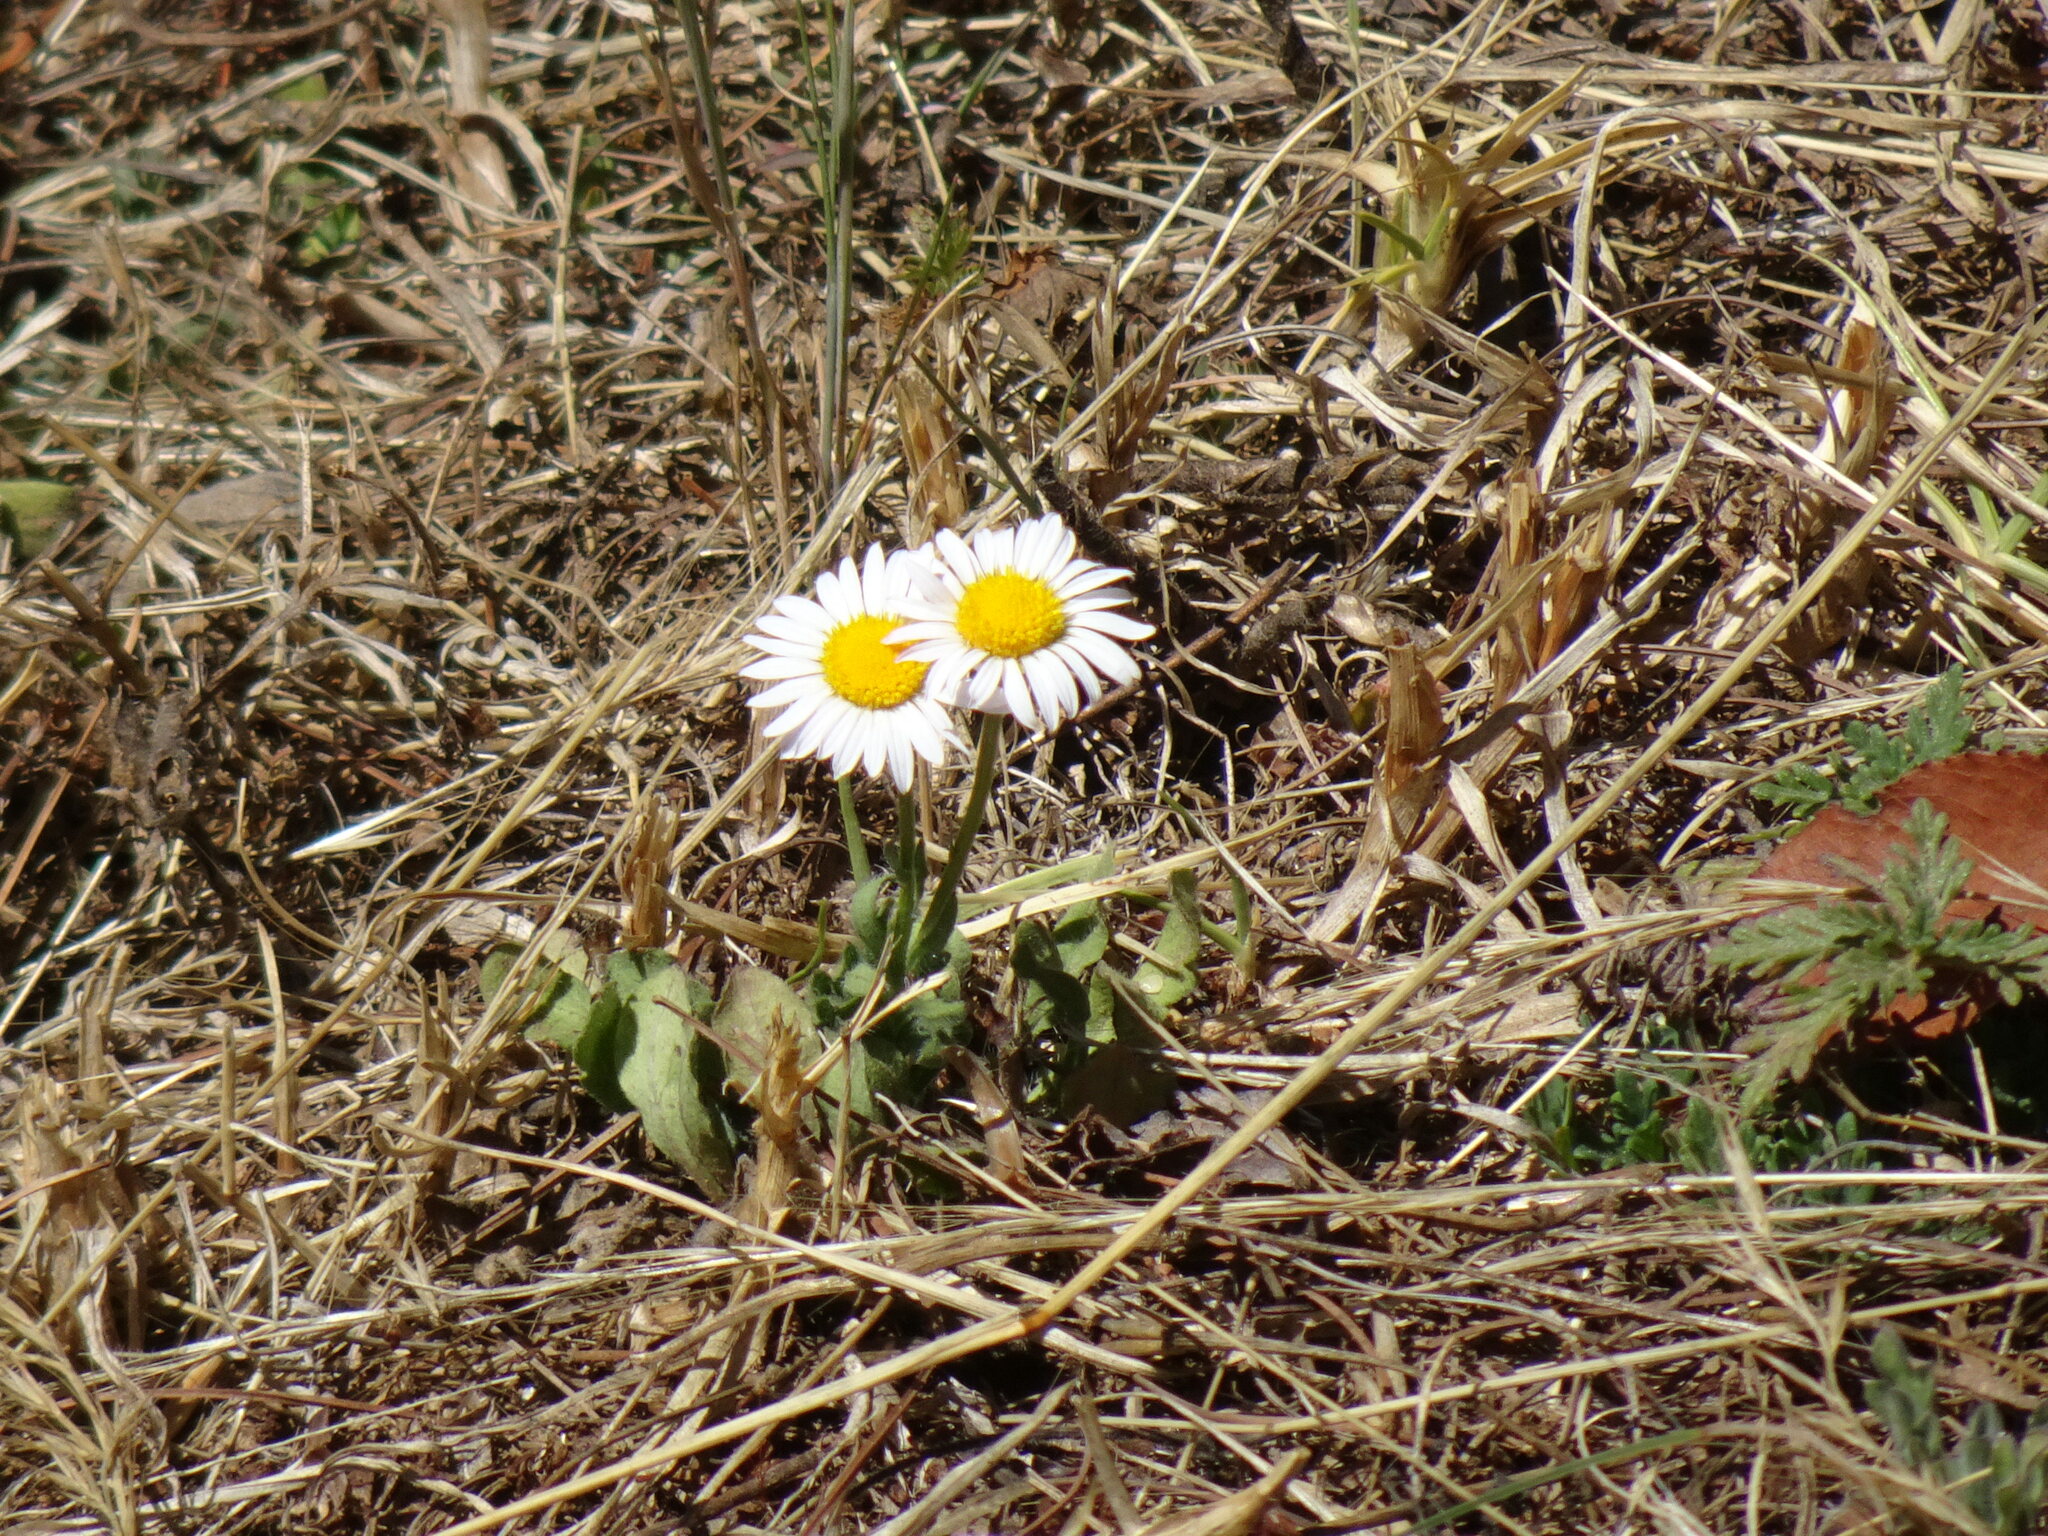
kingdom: Plantae
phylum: Tracheophyta
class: Magnoliopsida
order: Asterales
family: Asteraceae
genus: Aphanostephus
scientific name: Aphanostephus ramosissimus
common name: Plains lazy daisy
